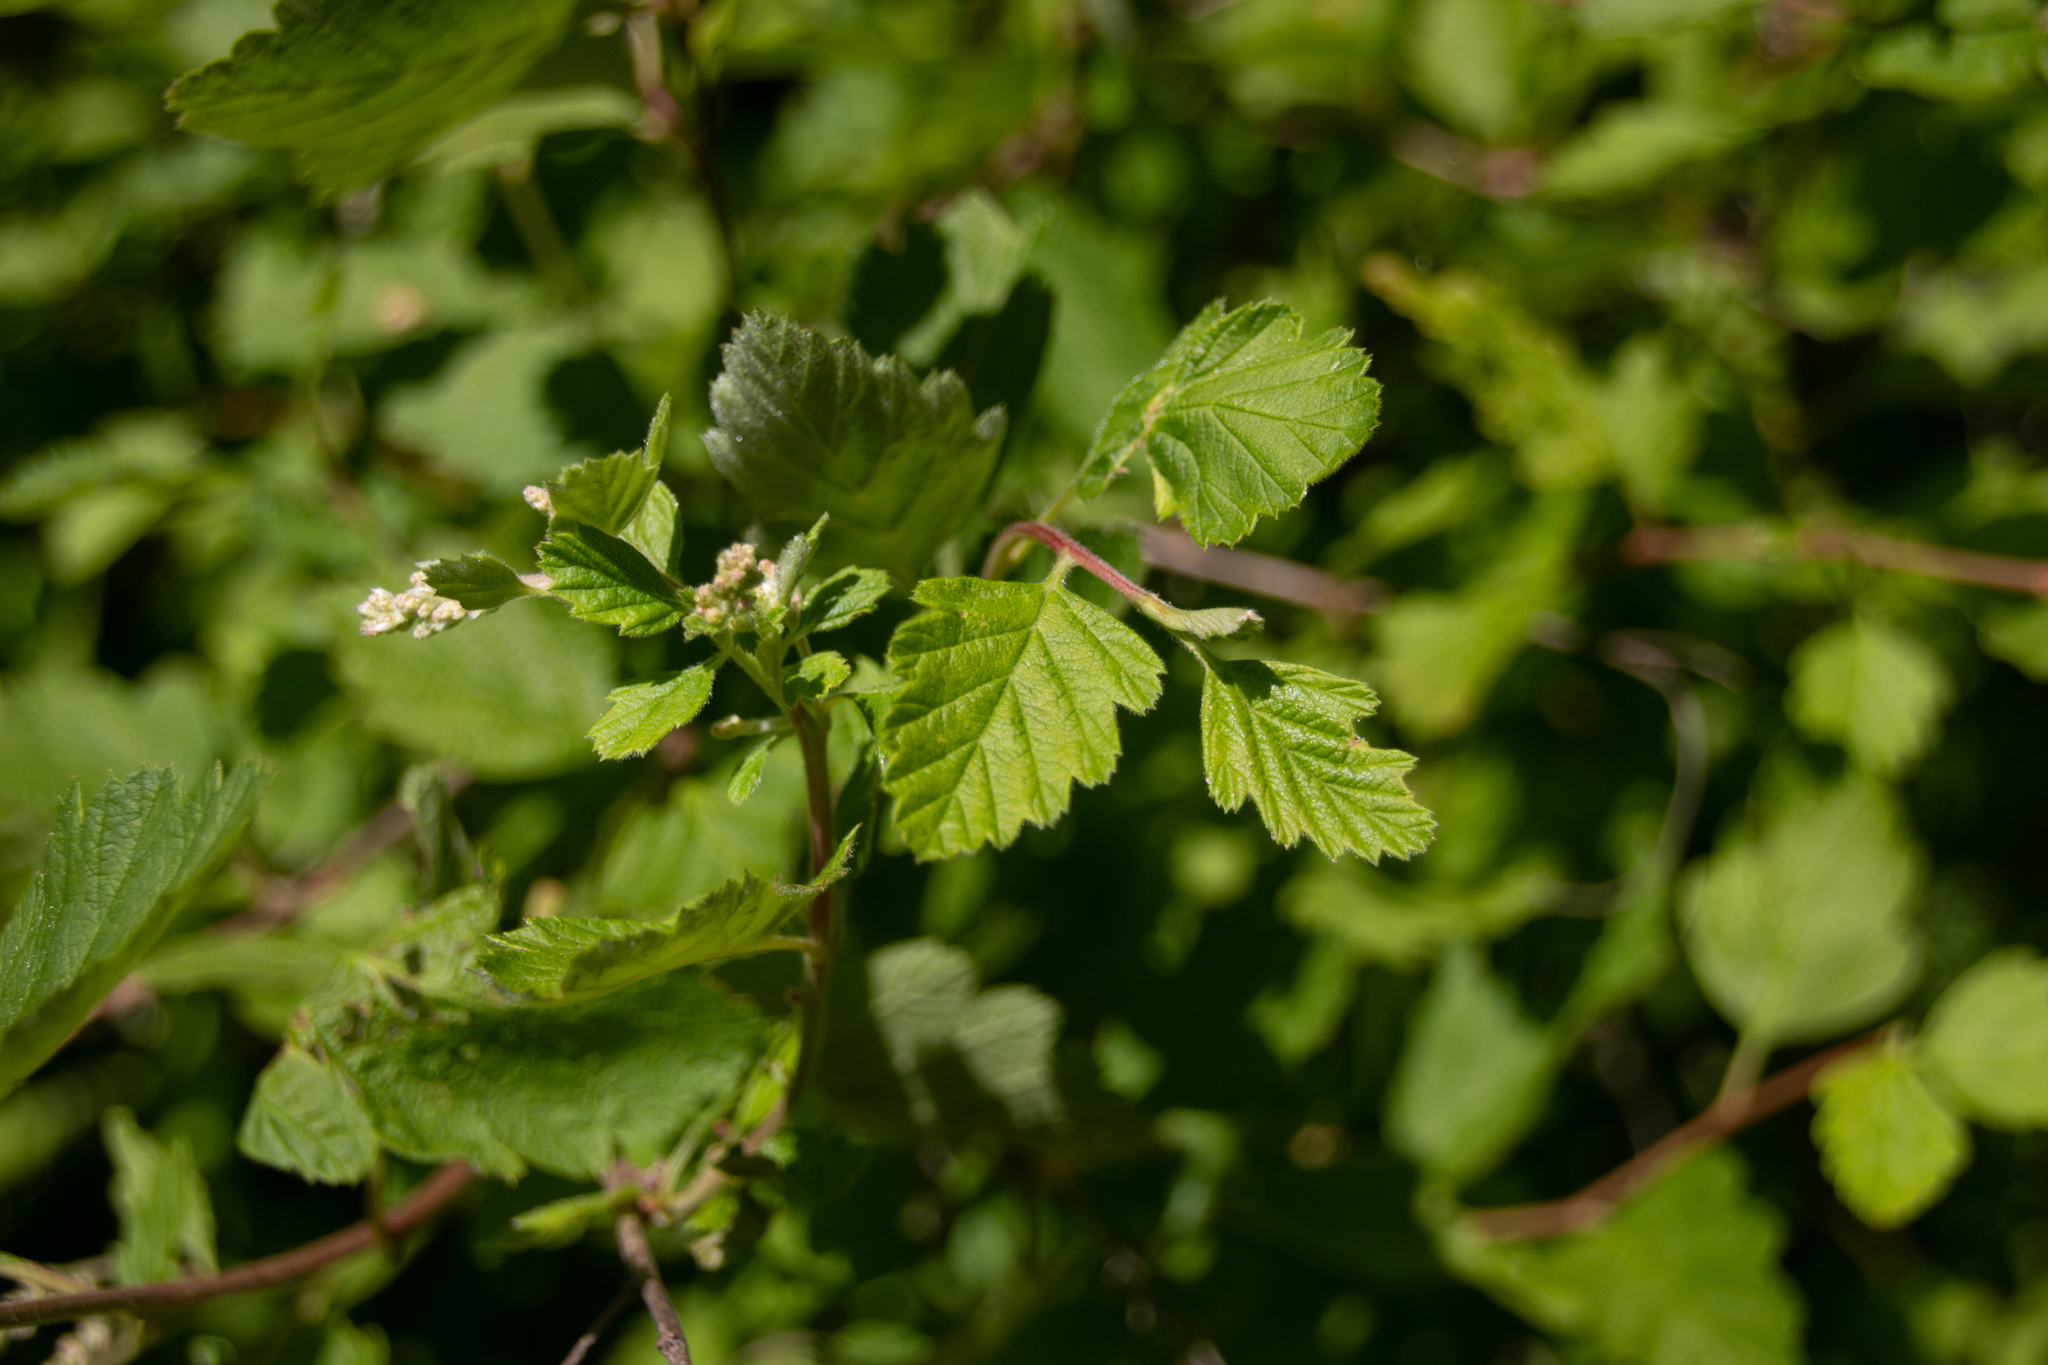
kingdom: Plantae
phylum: Tracheophyta
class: Magnoliopsida
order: Rosales
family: Rosaceae
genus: Holodiscus
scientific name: Holodiscus discolor
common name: Oceanspray
